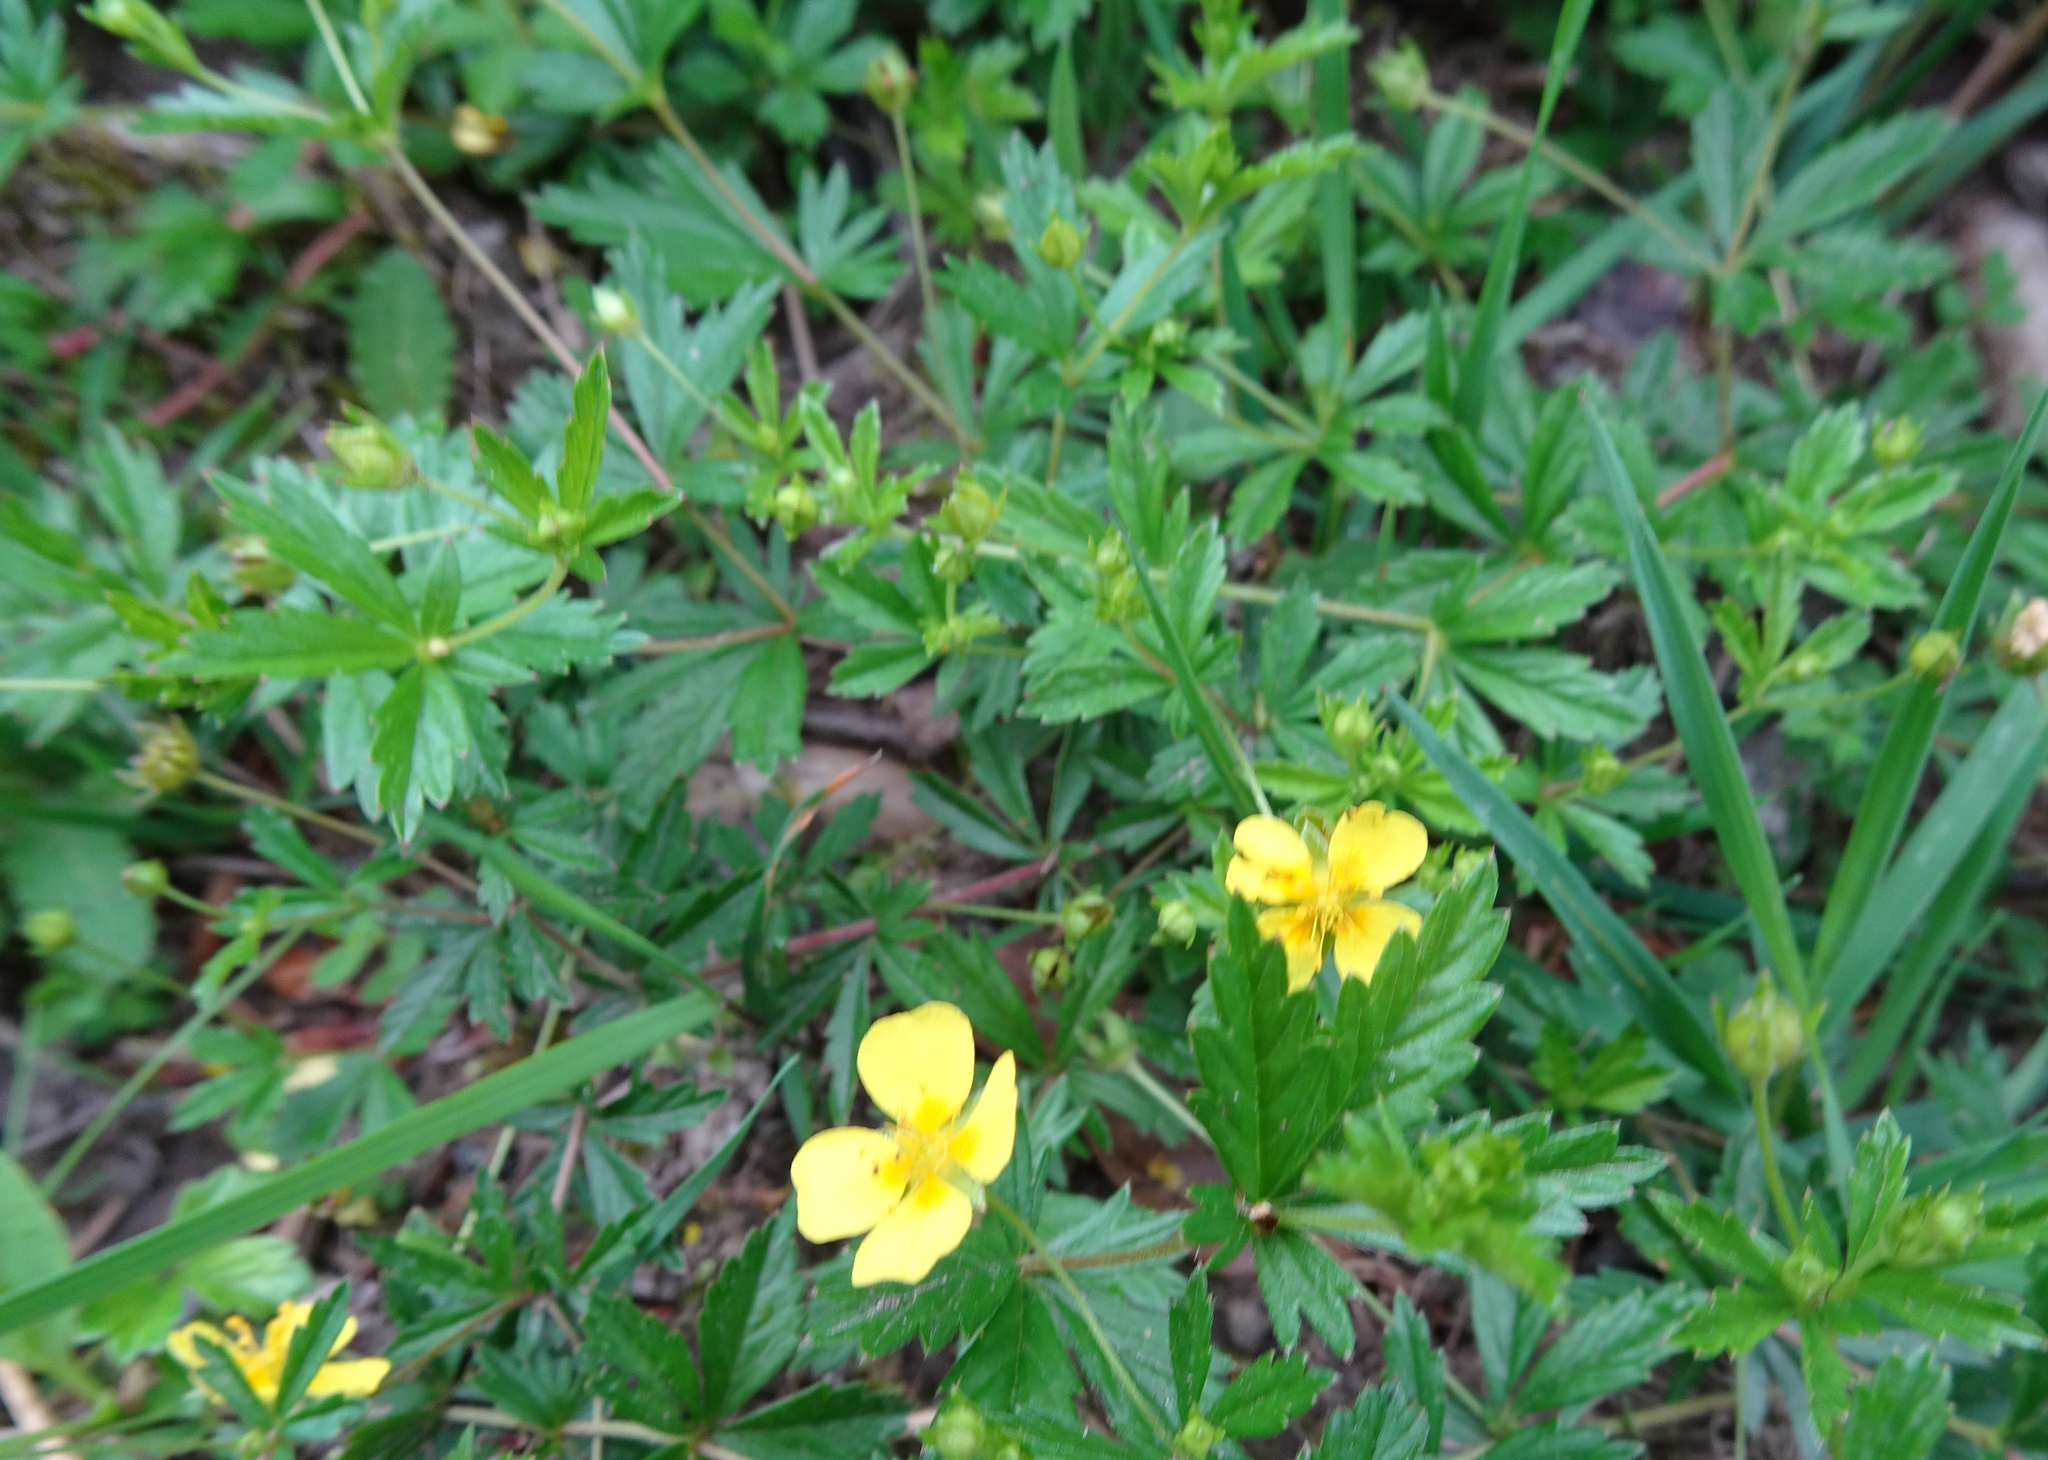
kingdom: Plantae
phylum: Tracheophyta
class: Magnoliopsida
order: Rosales
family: Rosaceae
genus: Potentilla
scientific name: Potentilla erecta
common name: Tormentil
